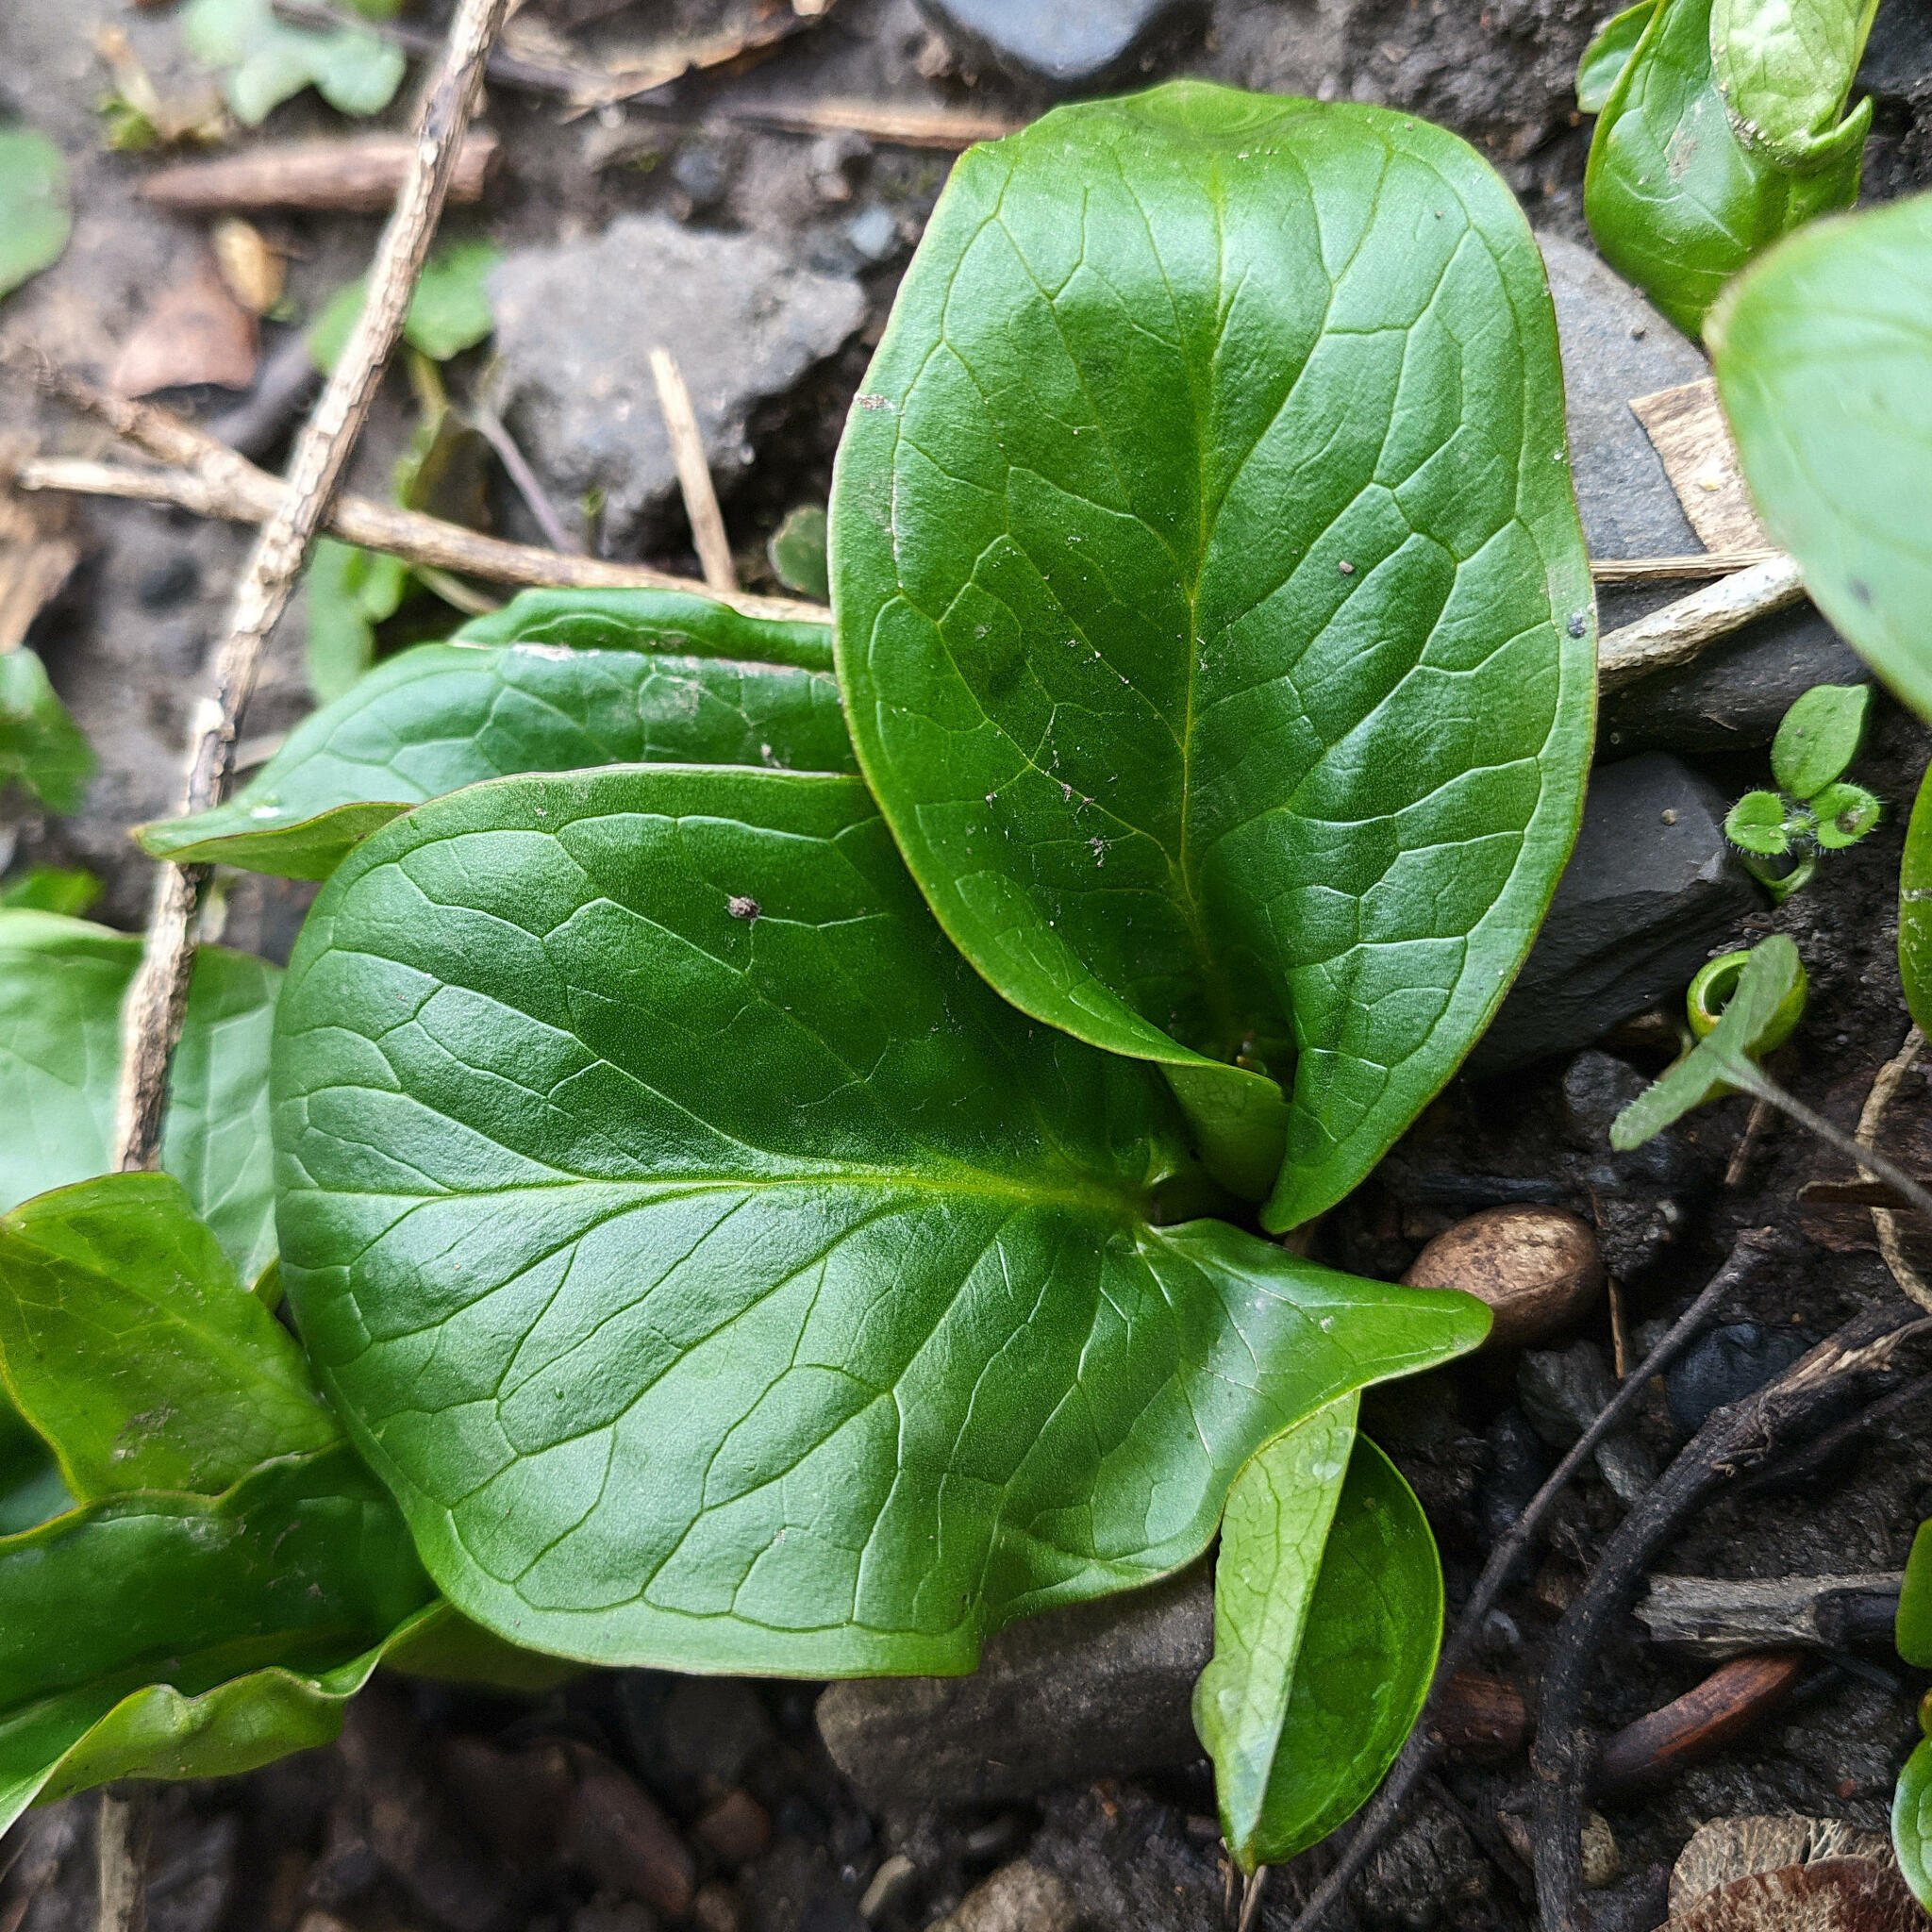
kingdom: Plantae
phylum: Tracheophyta
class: Liliopsida
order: Alismatales
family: Araceae
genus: Arum
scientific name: Arum maculatum
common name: Lords-and-ladies
